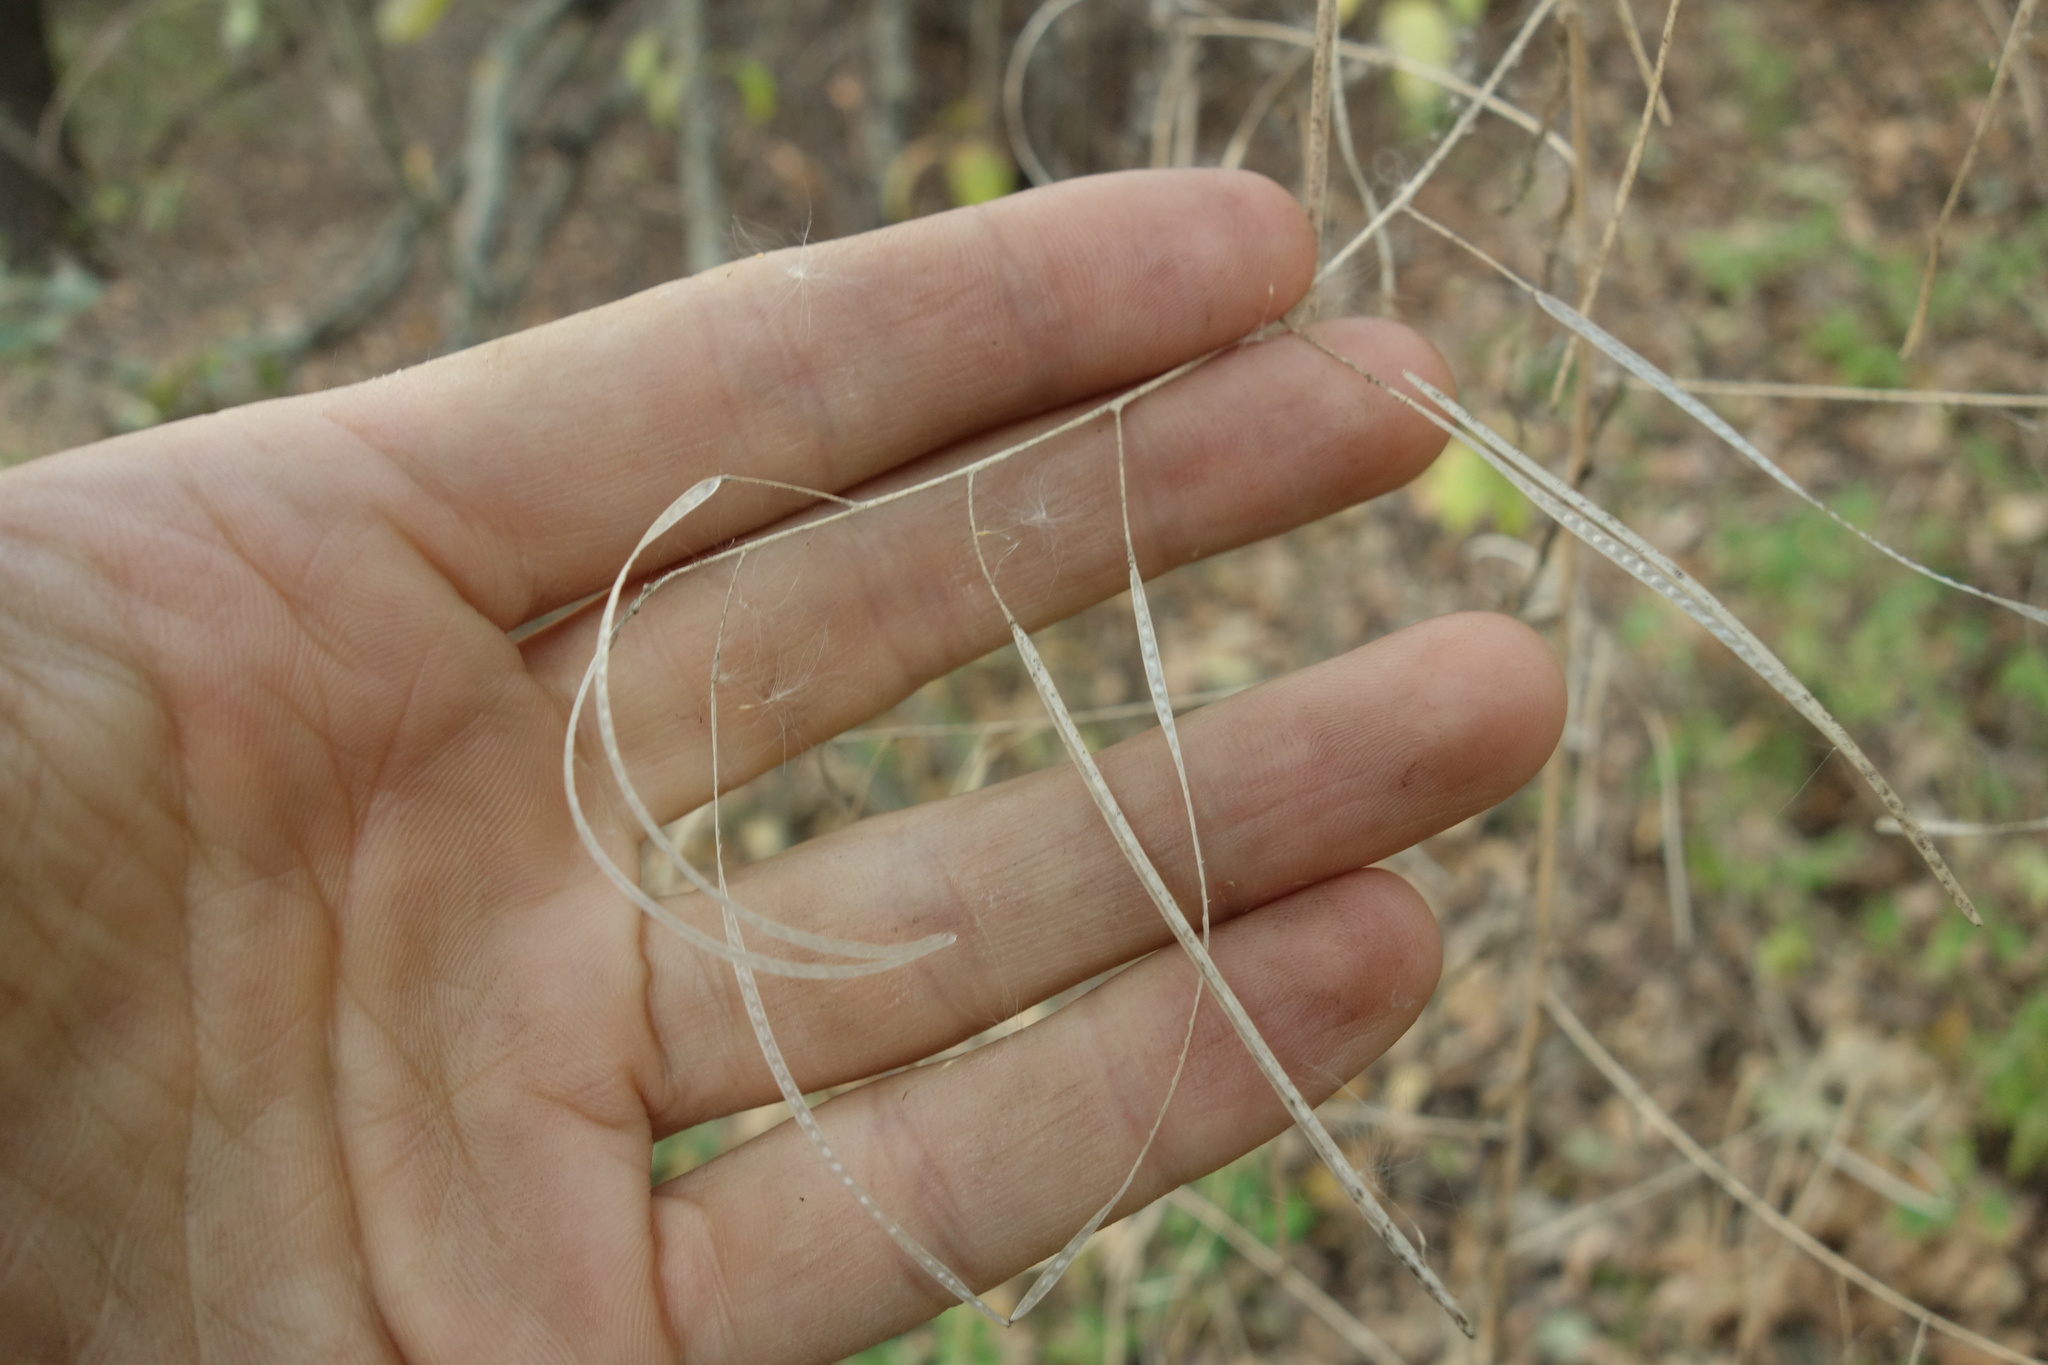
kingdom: Plantae
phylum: Tracheophyta
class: Magnoliopsida
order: Brassicales
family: Brassicaceae
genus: Catolobus
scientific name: Catolobus pendulus
